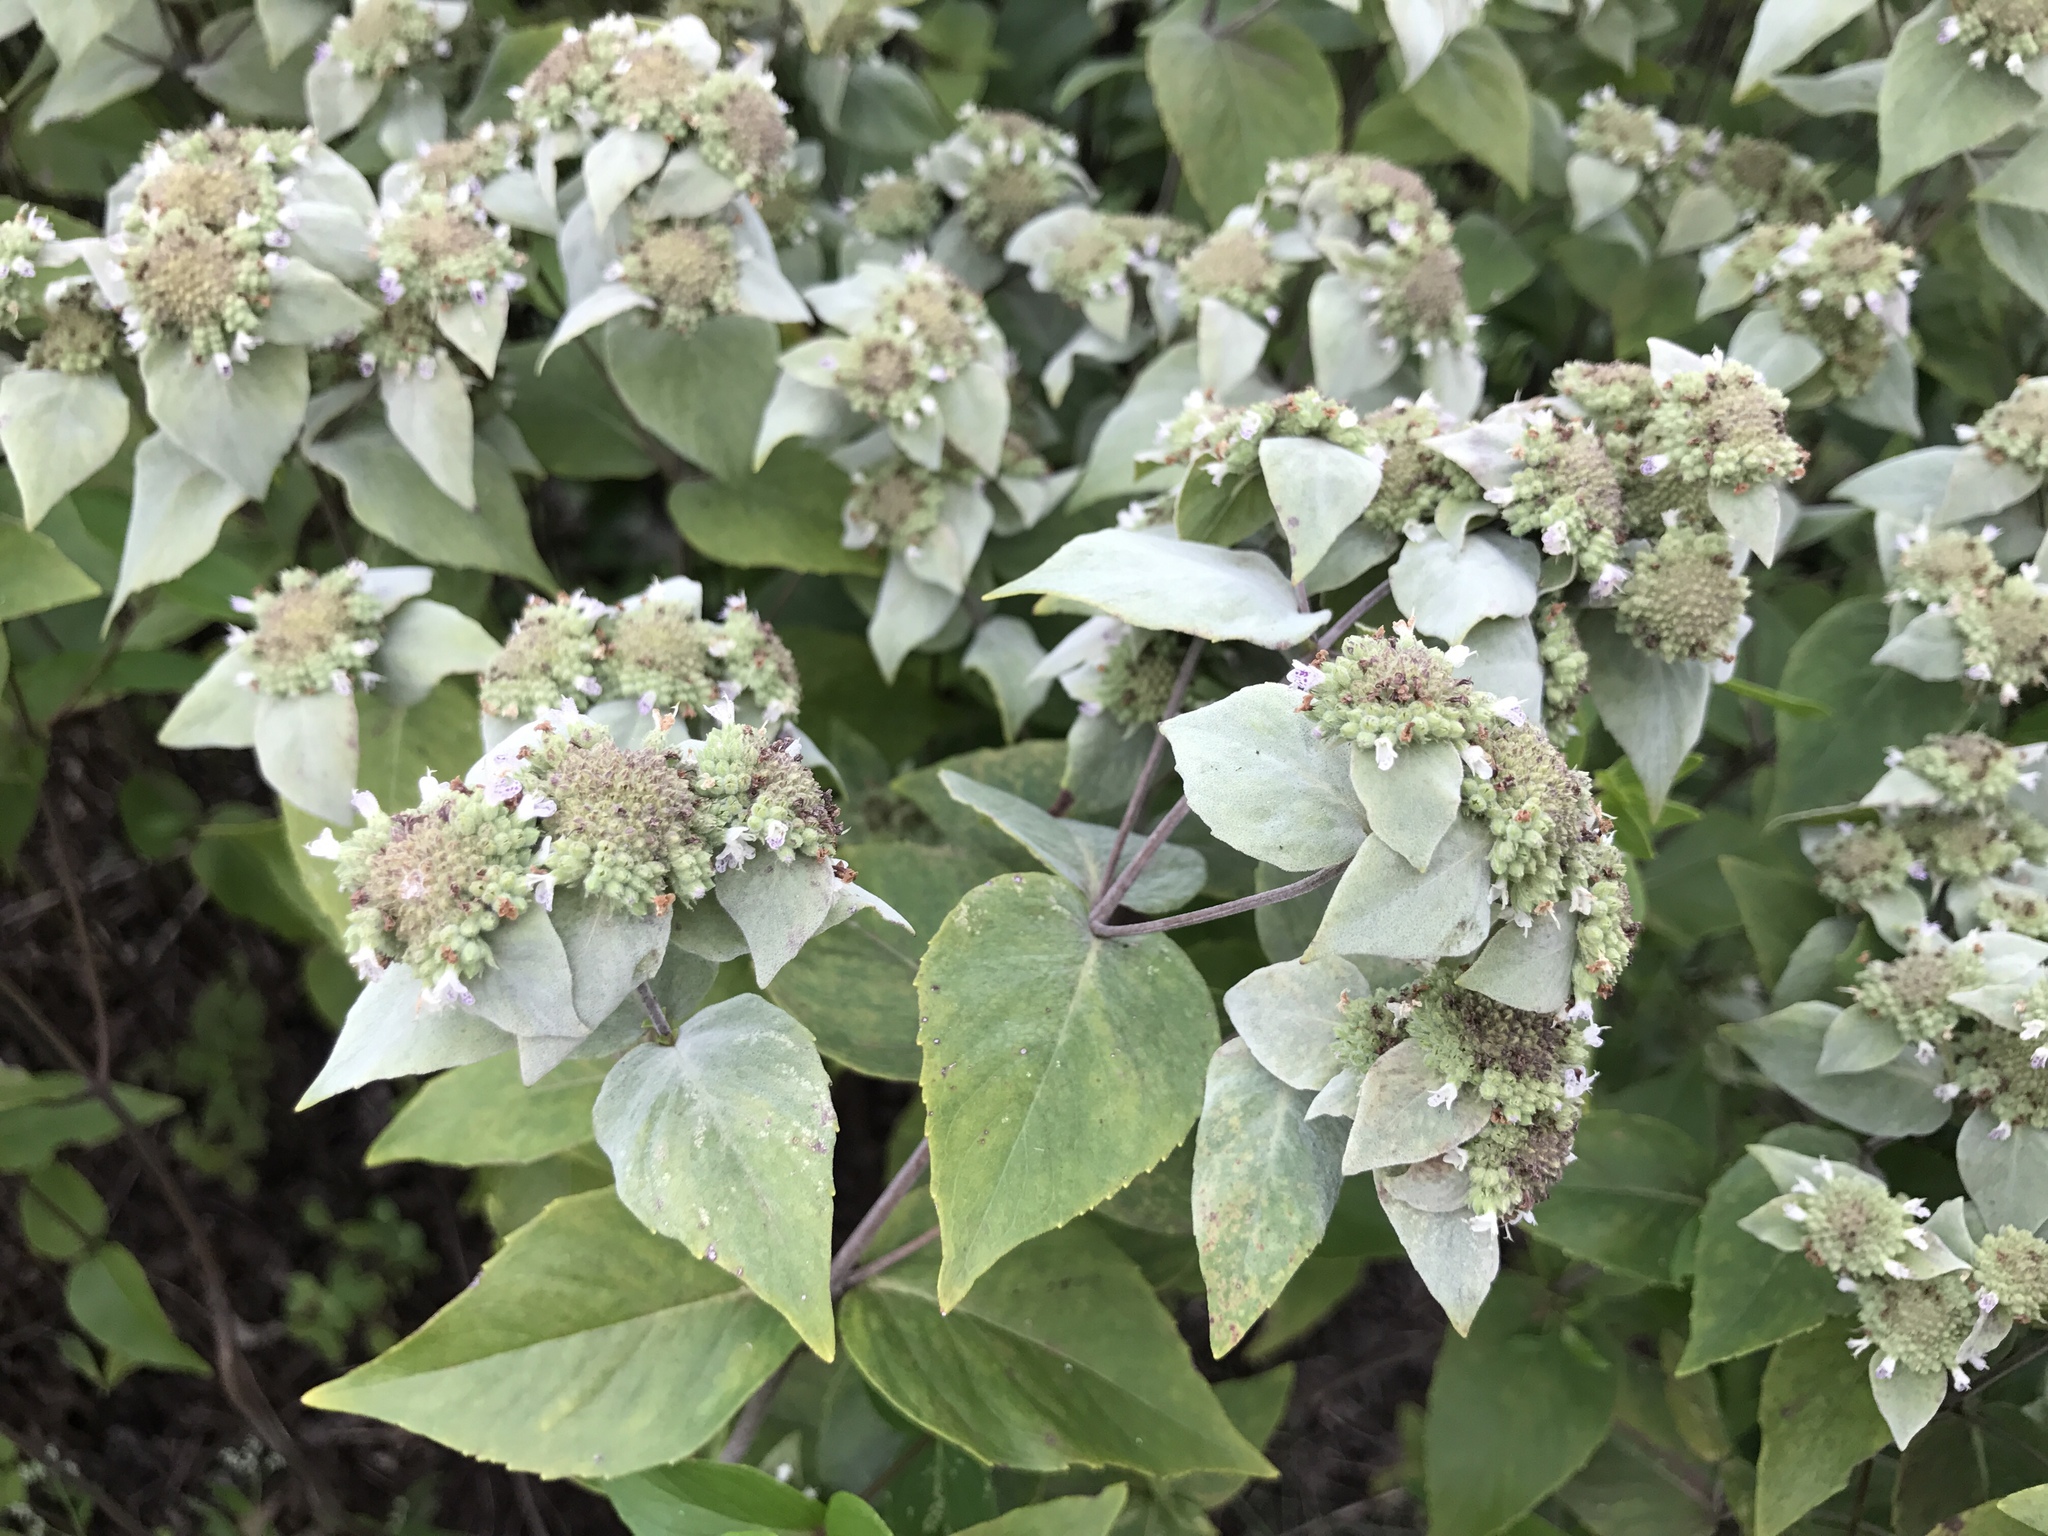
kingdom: Plantae
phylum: Tracheophyta
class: Magnoliopsida
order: Lamiales
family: Lamiaceae
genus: Pycnanthemum
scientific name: Pycnanthemum muticum
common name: Blunt mountain-mint
